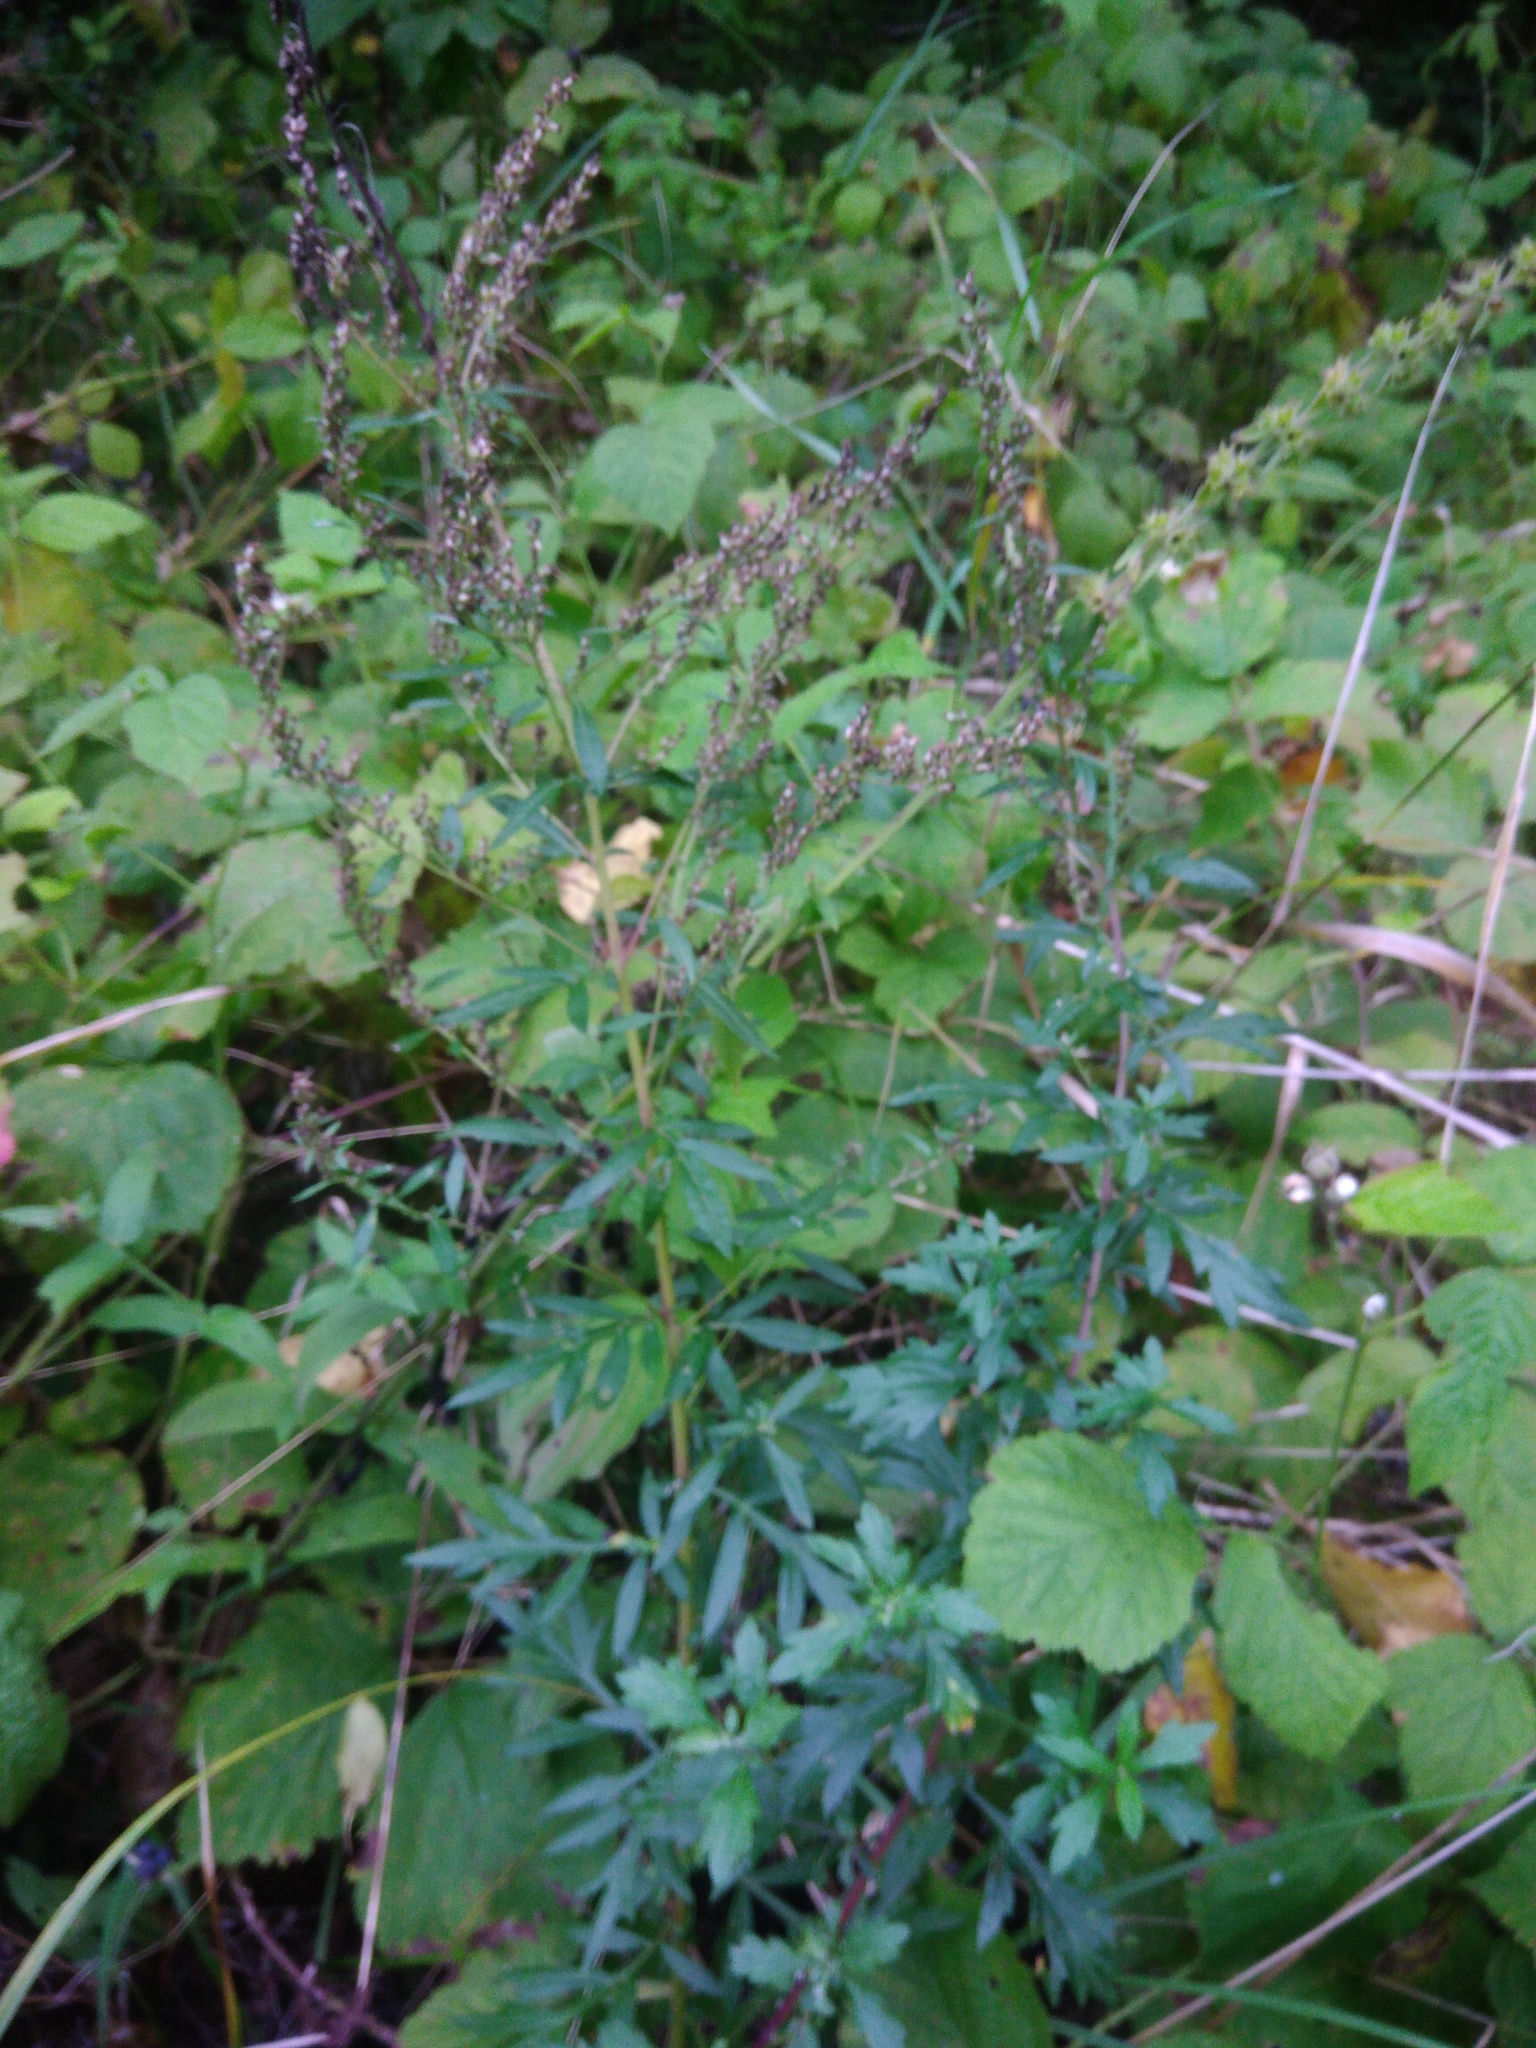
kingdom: Plantae
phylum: Tracheophyta
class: Magnoliopsida
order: Asterales
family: Asteraceae
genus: Artemisia
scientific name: Artemisia vulgaris
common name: Mugwort
